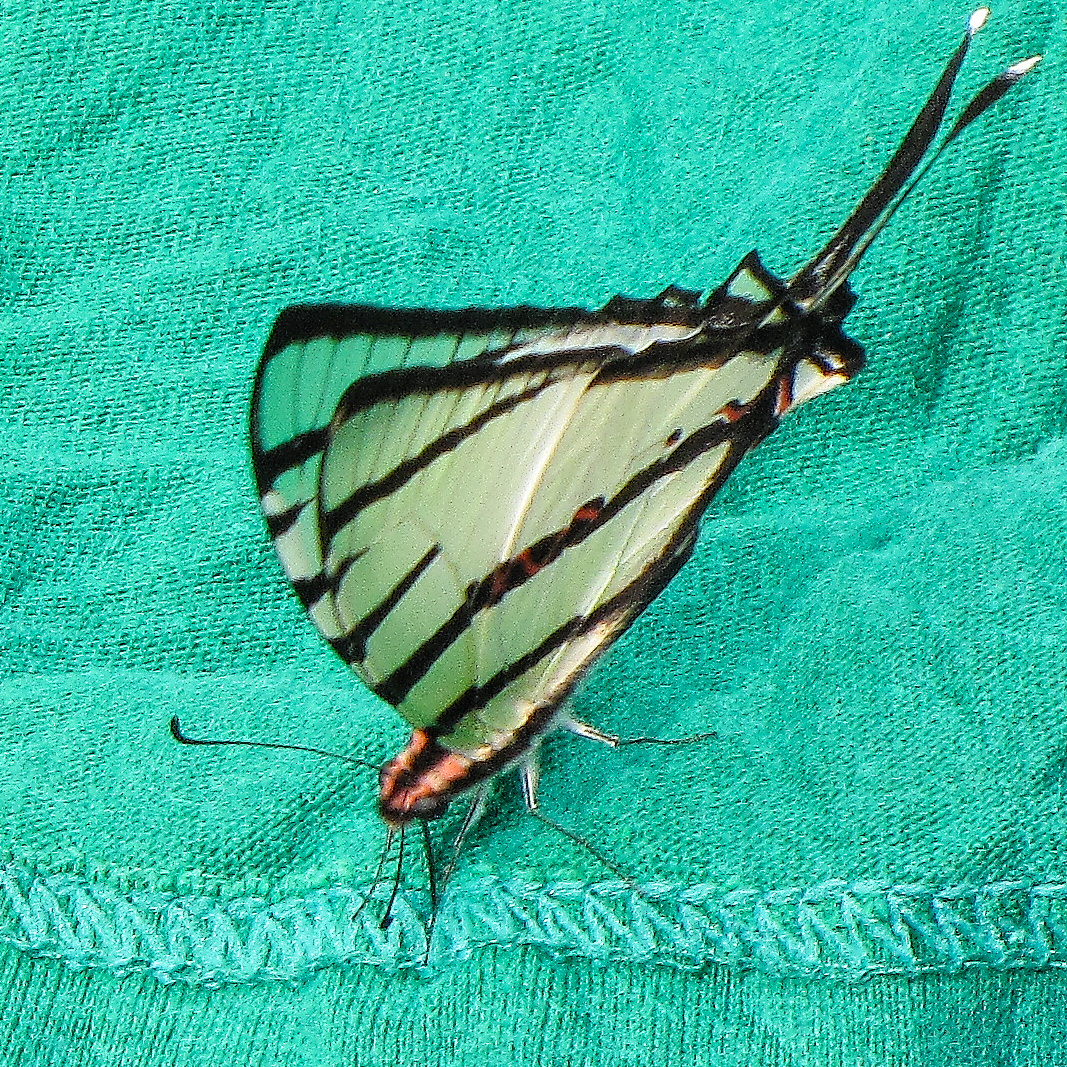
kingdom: Animalia
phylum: Arthropoda
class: Insecta
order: Lepidoptera
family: Papilionidae
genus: Graphium
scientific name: Graphium agetes
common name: Fourbar swordtail
